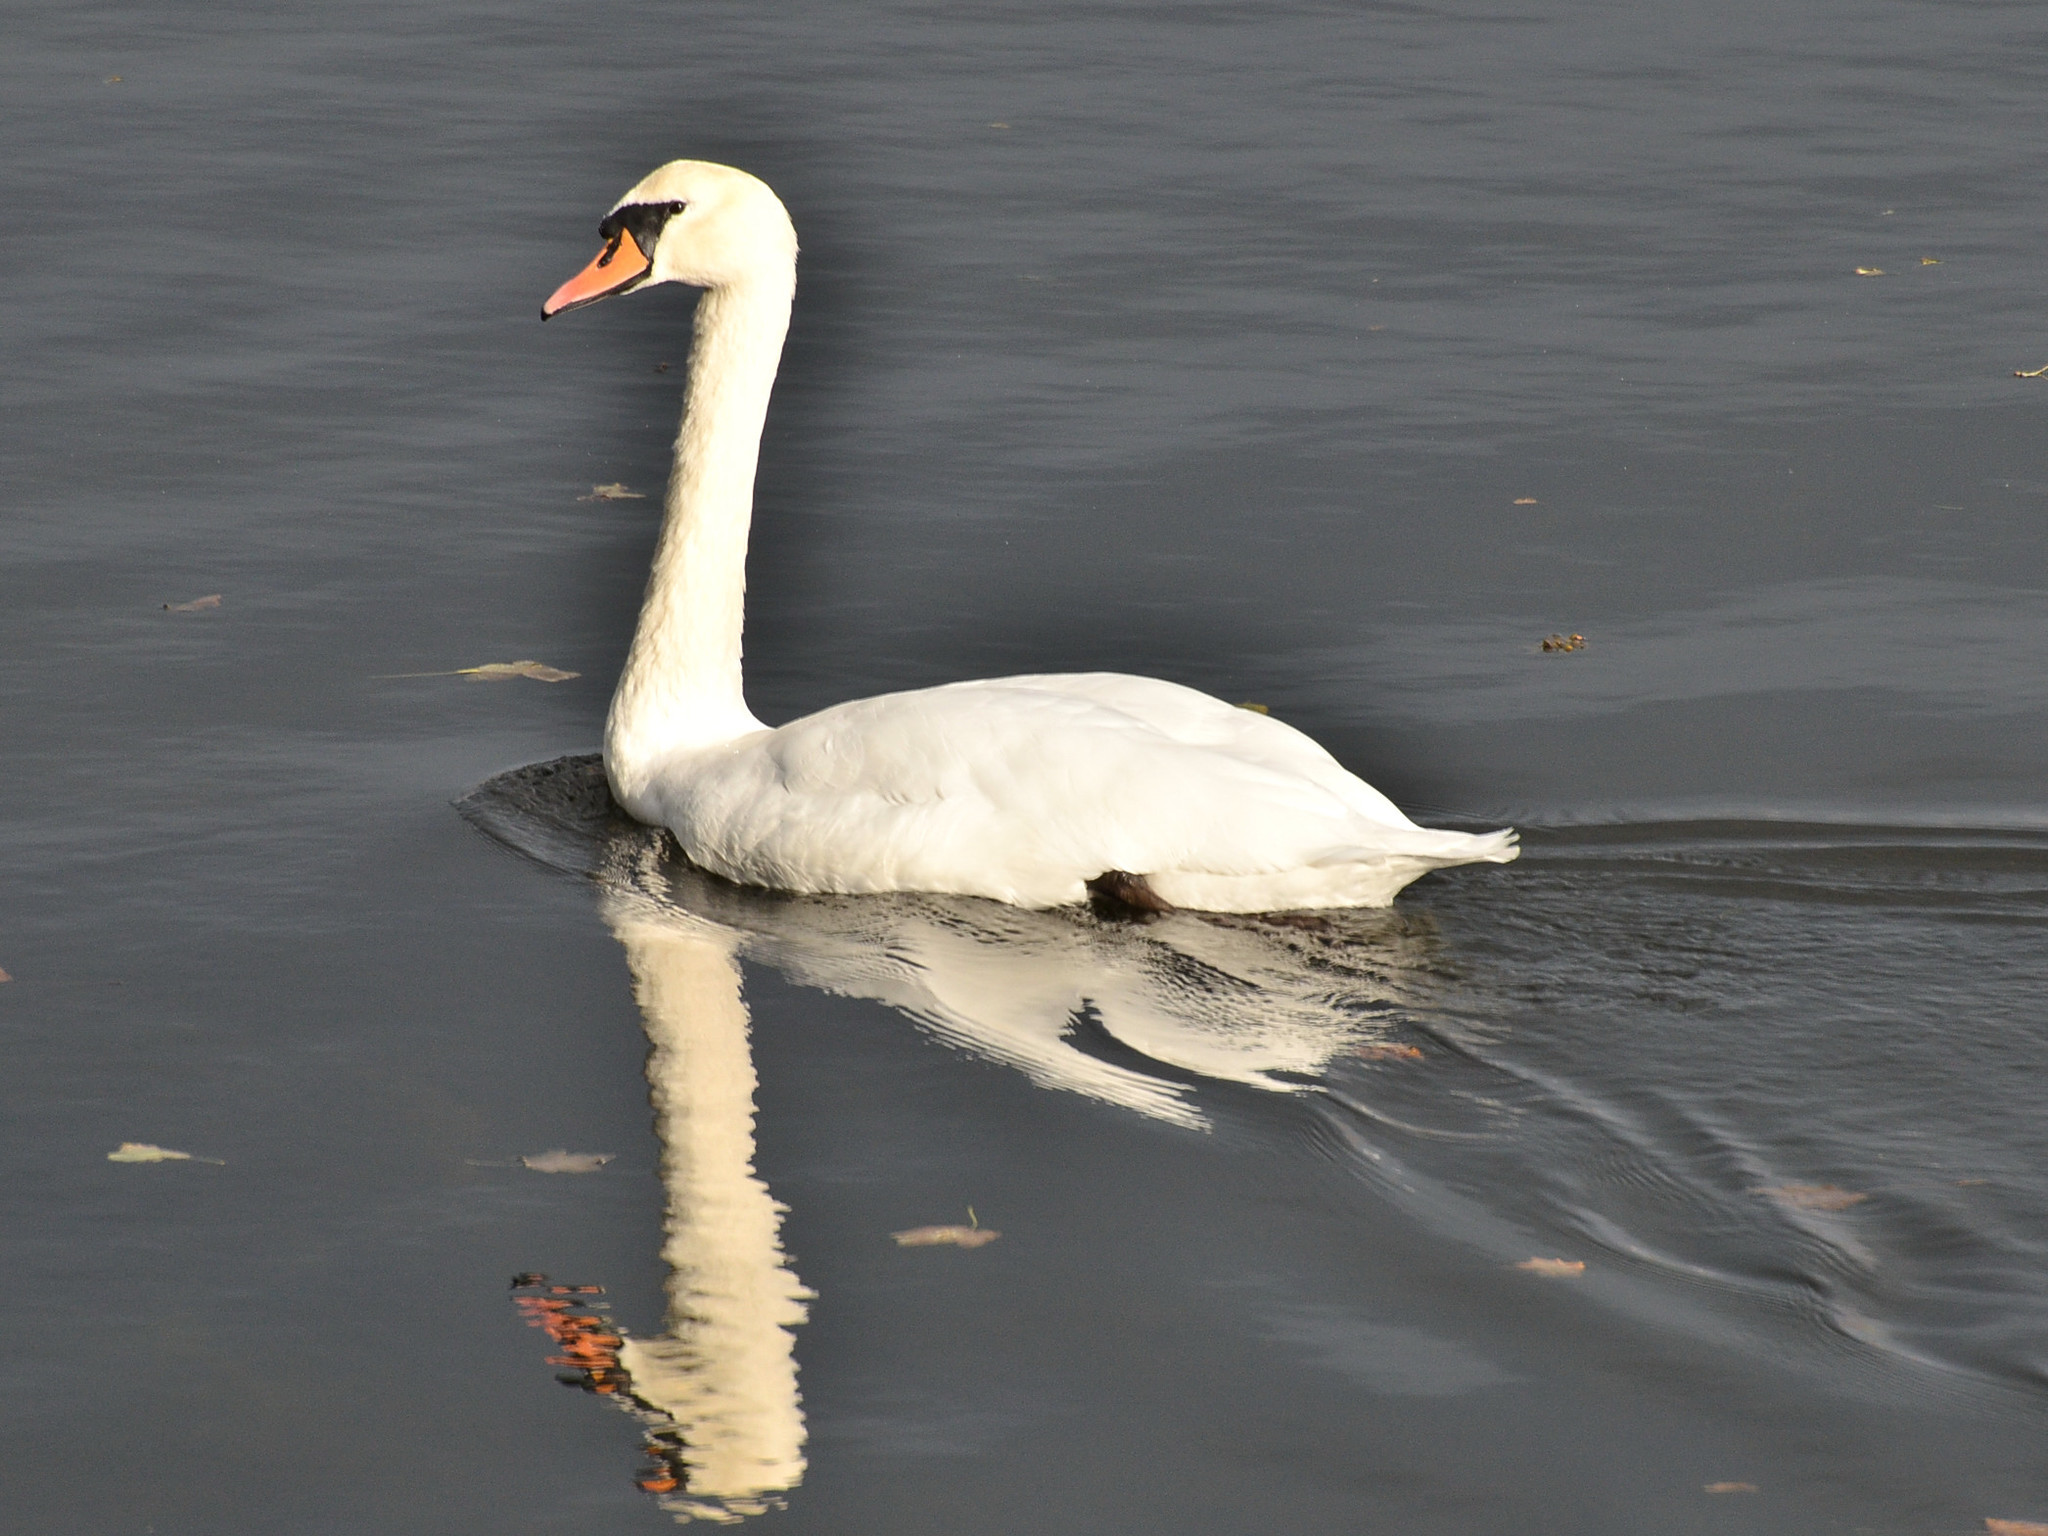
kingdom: Animalia
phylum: Chordata
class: Aves
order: Anseriformes
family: Anatidae
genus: Cygnus
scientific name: Cygnus olor
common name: Mute swan
